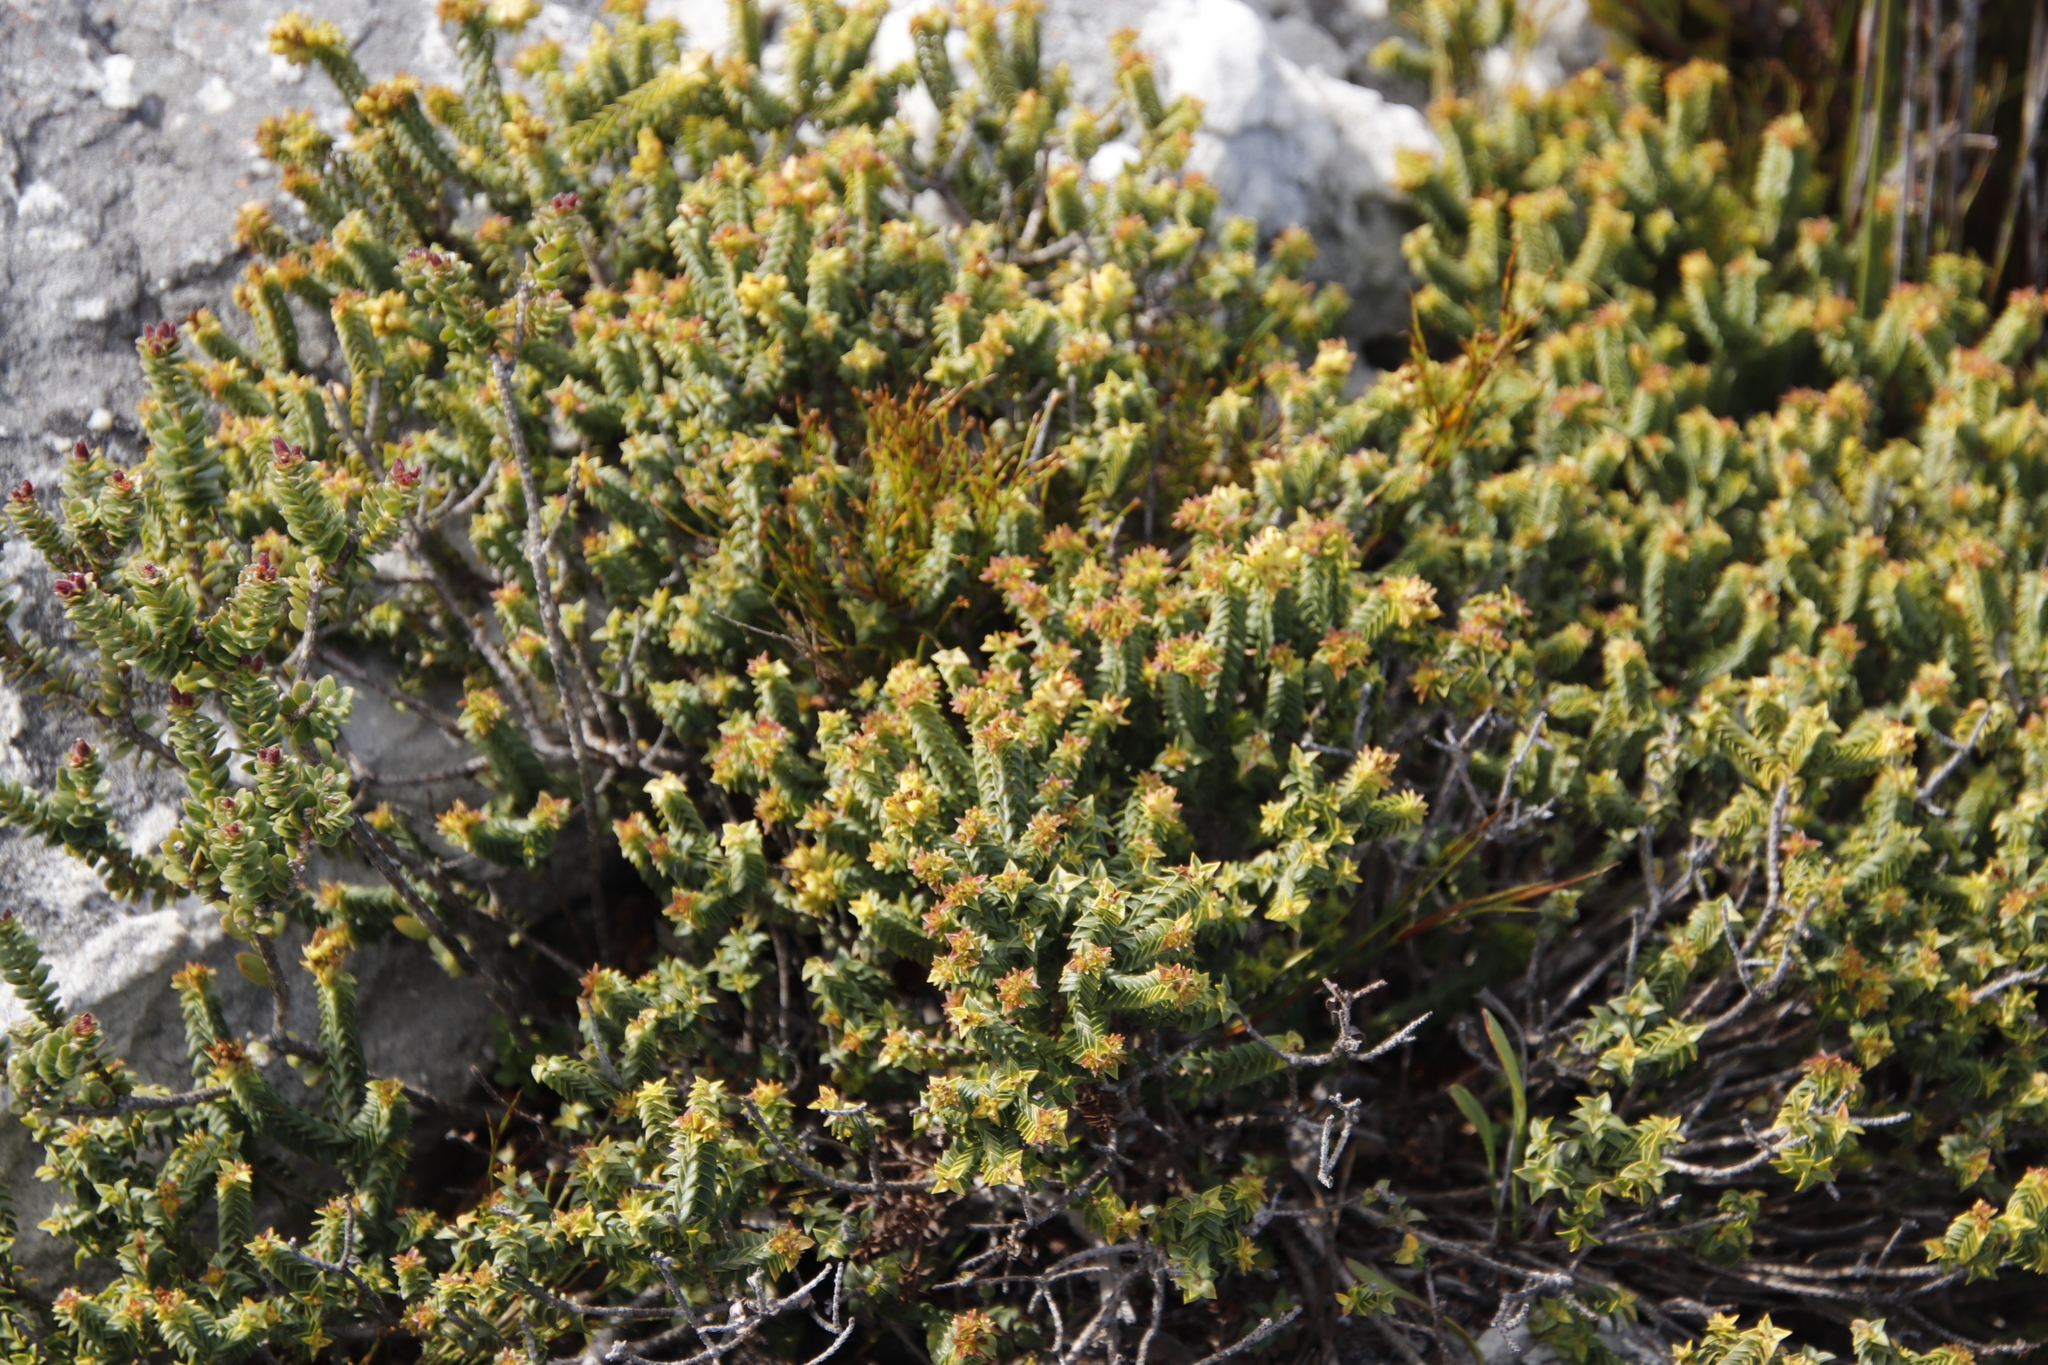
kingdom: Plantae
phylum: Tracheophyta
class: Magnoliopsida
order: Myrtales
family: Penaeaceae
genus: Penaea
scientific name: Penaea mucronata
